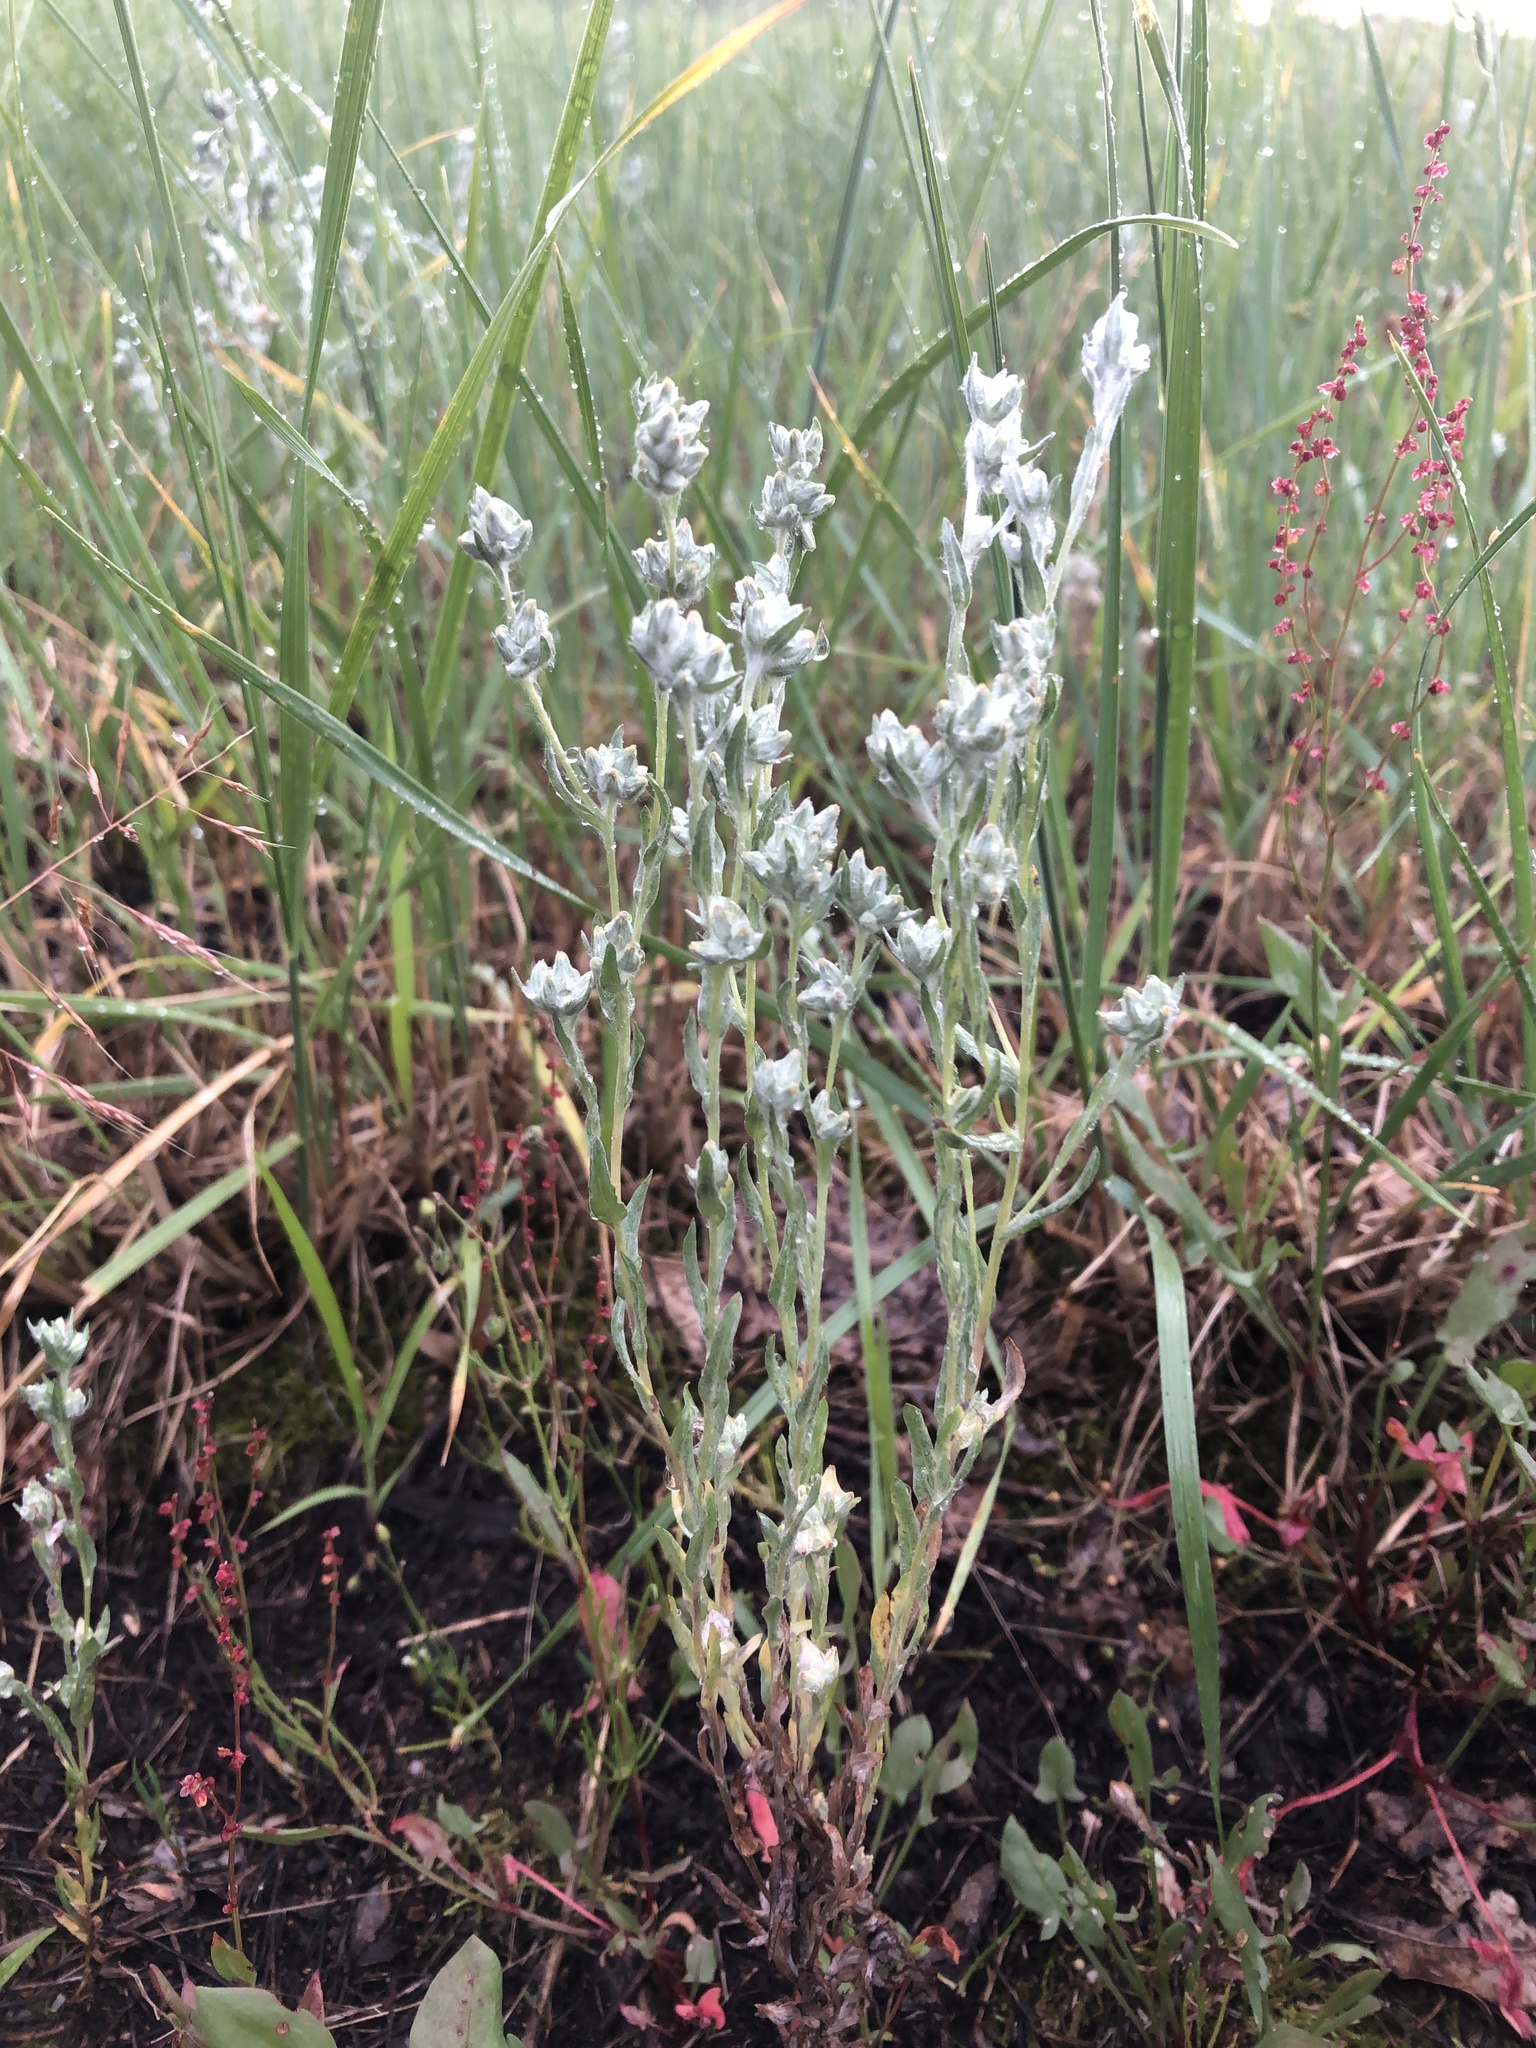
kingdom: Plantae
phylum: Tracheophyta
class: Magnoliopsida
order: Asterales
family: Asteraceae
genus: Filago
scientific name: Filago arvensis
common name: Field cudweed
